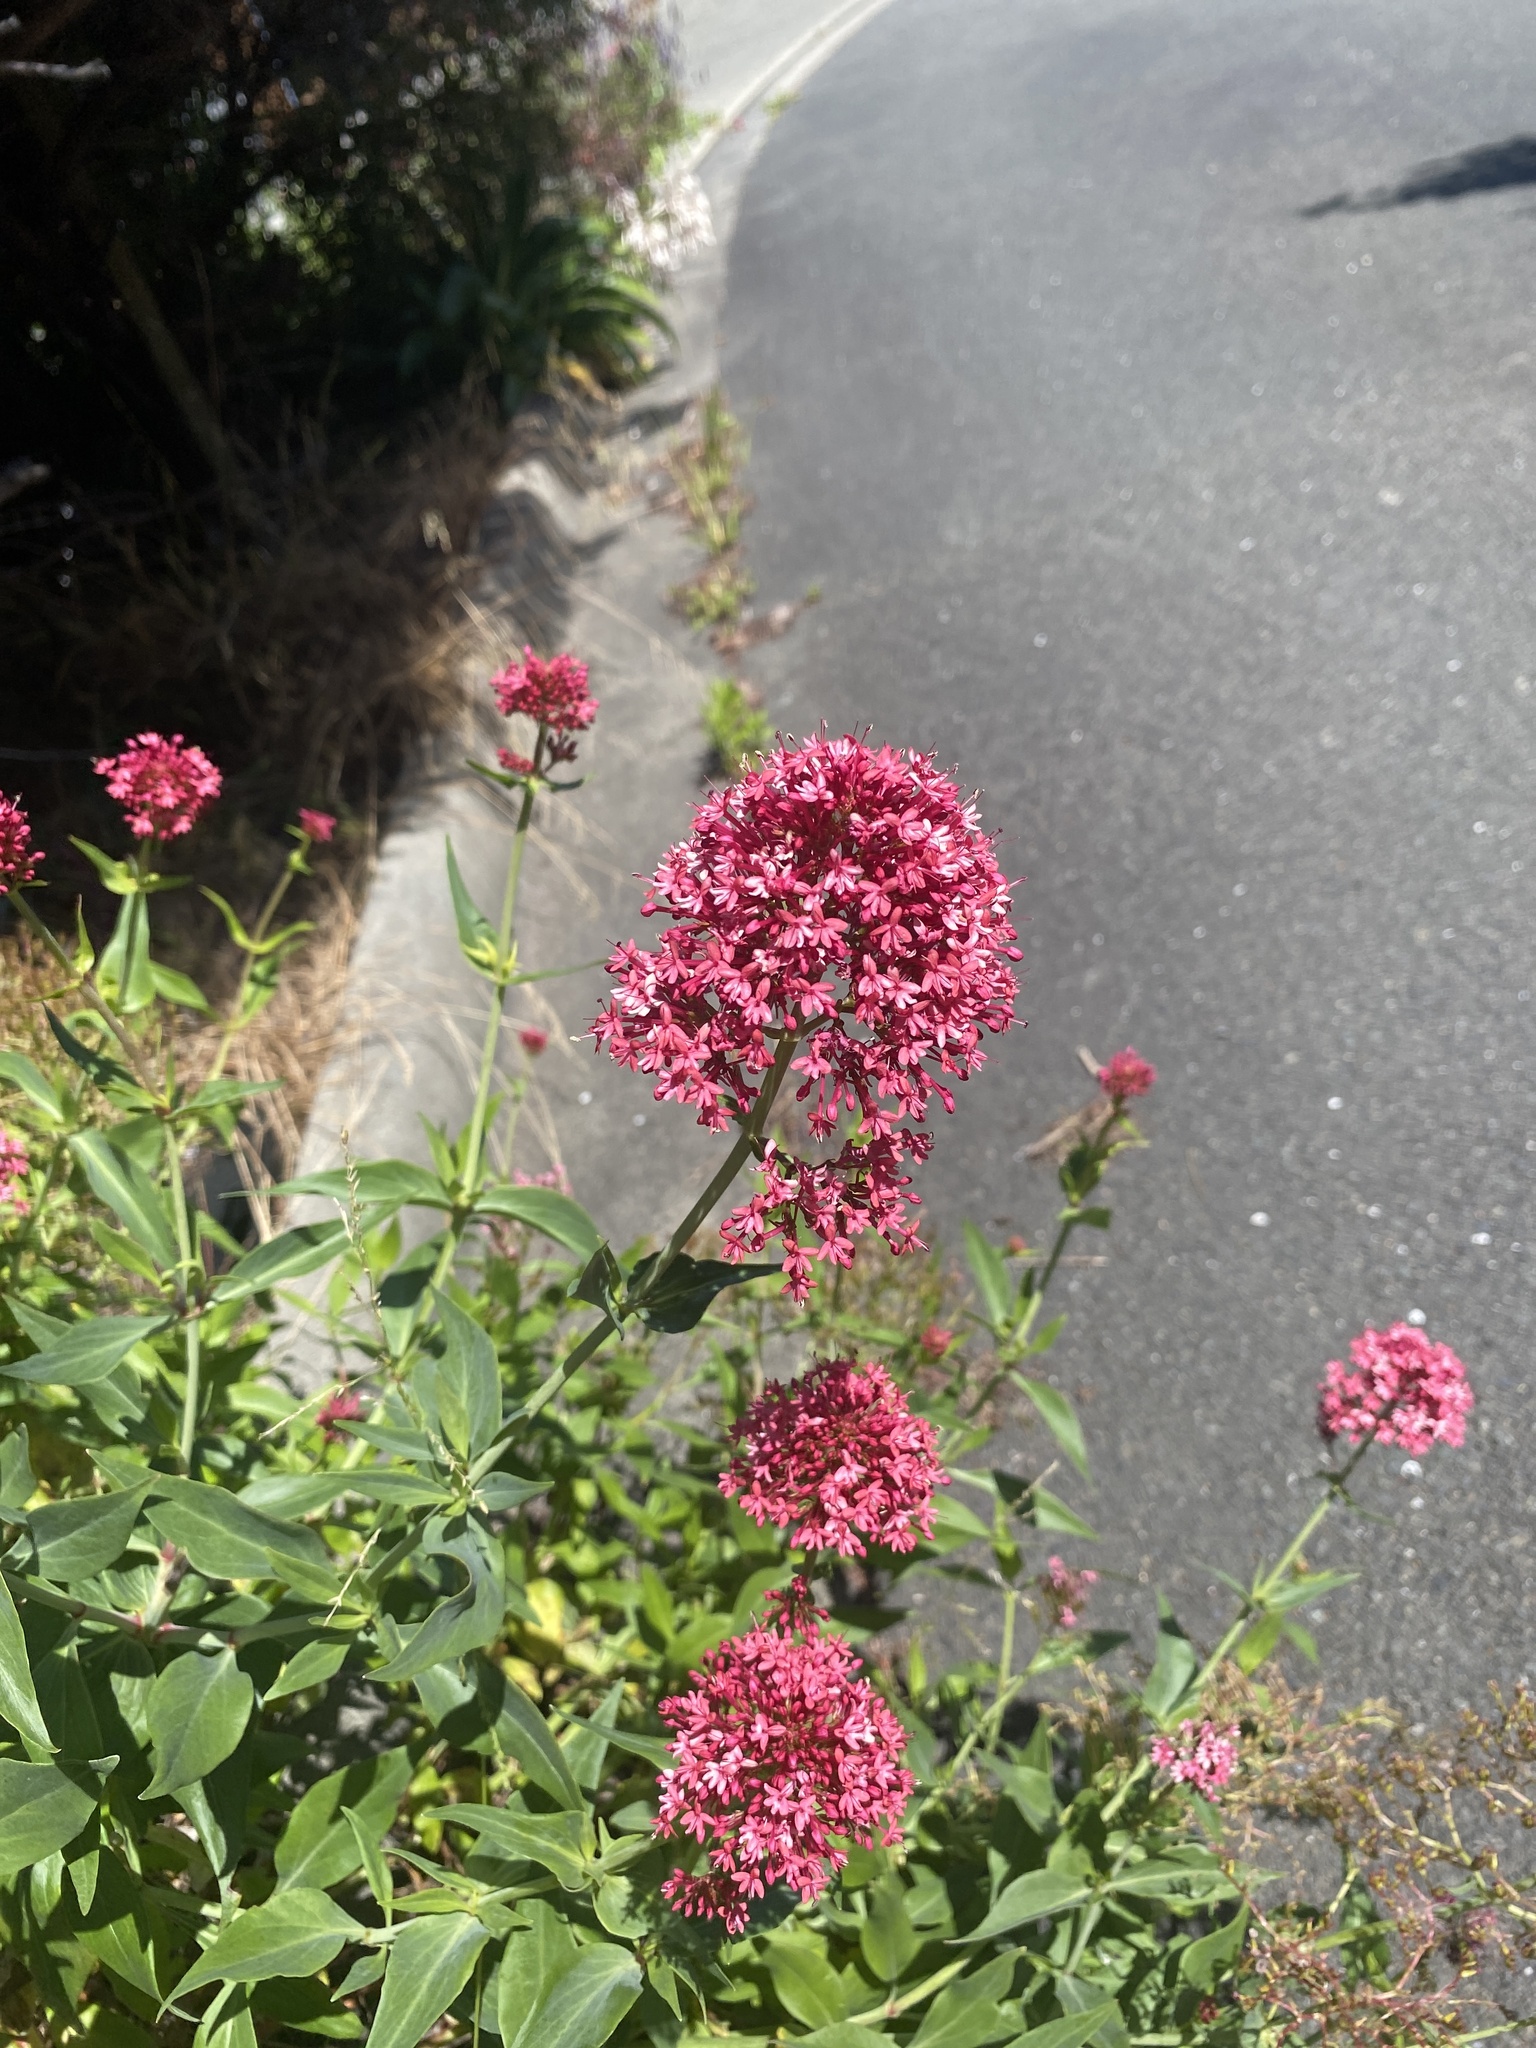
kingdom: Plantae
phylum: Tracheophyta
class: Magnoliopsida
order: Dipsacales
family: Caprifoliaceae
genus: Centranthus
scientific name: Centranthus ruber
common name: Red valerian
